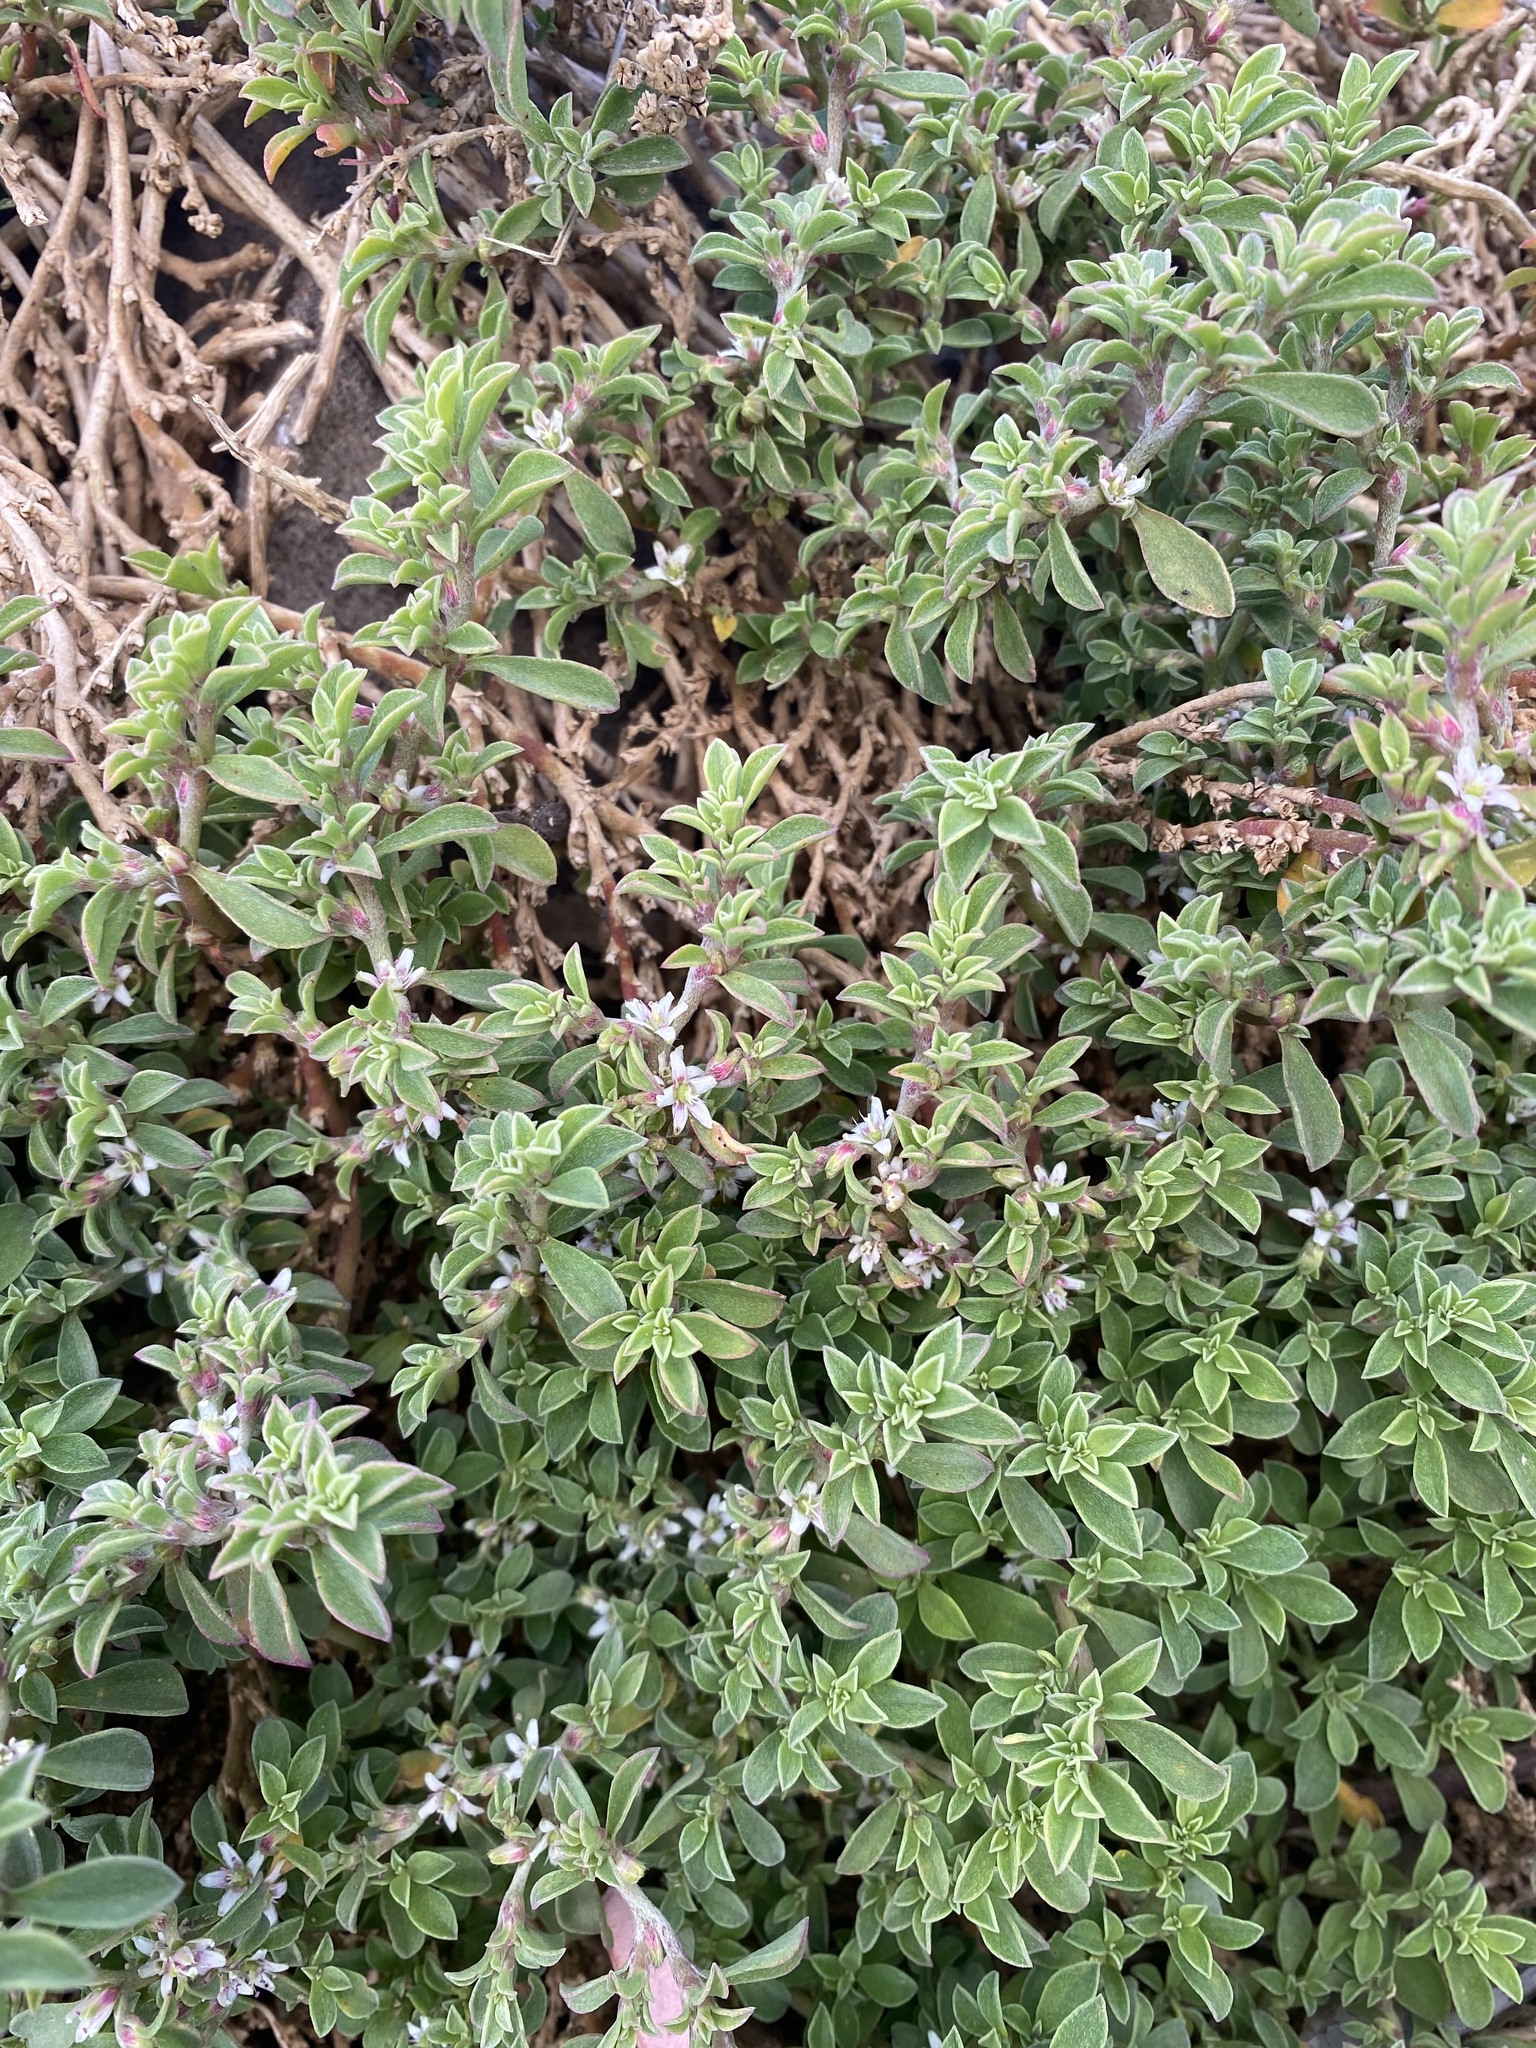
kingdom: Plantae
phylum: Tracheophyta
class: Magnoliopsida
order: Caryophyllales
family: Aizoaceae
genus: Aizoon
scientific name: Aizoon pubescens
